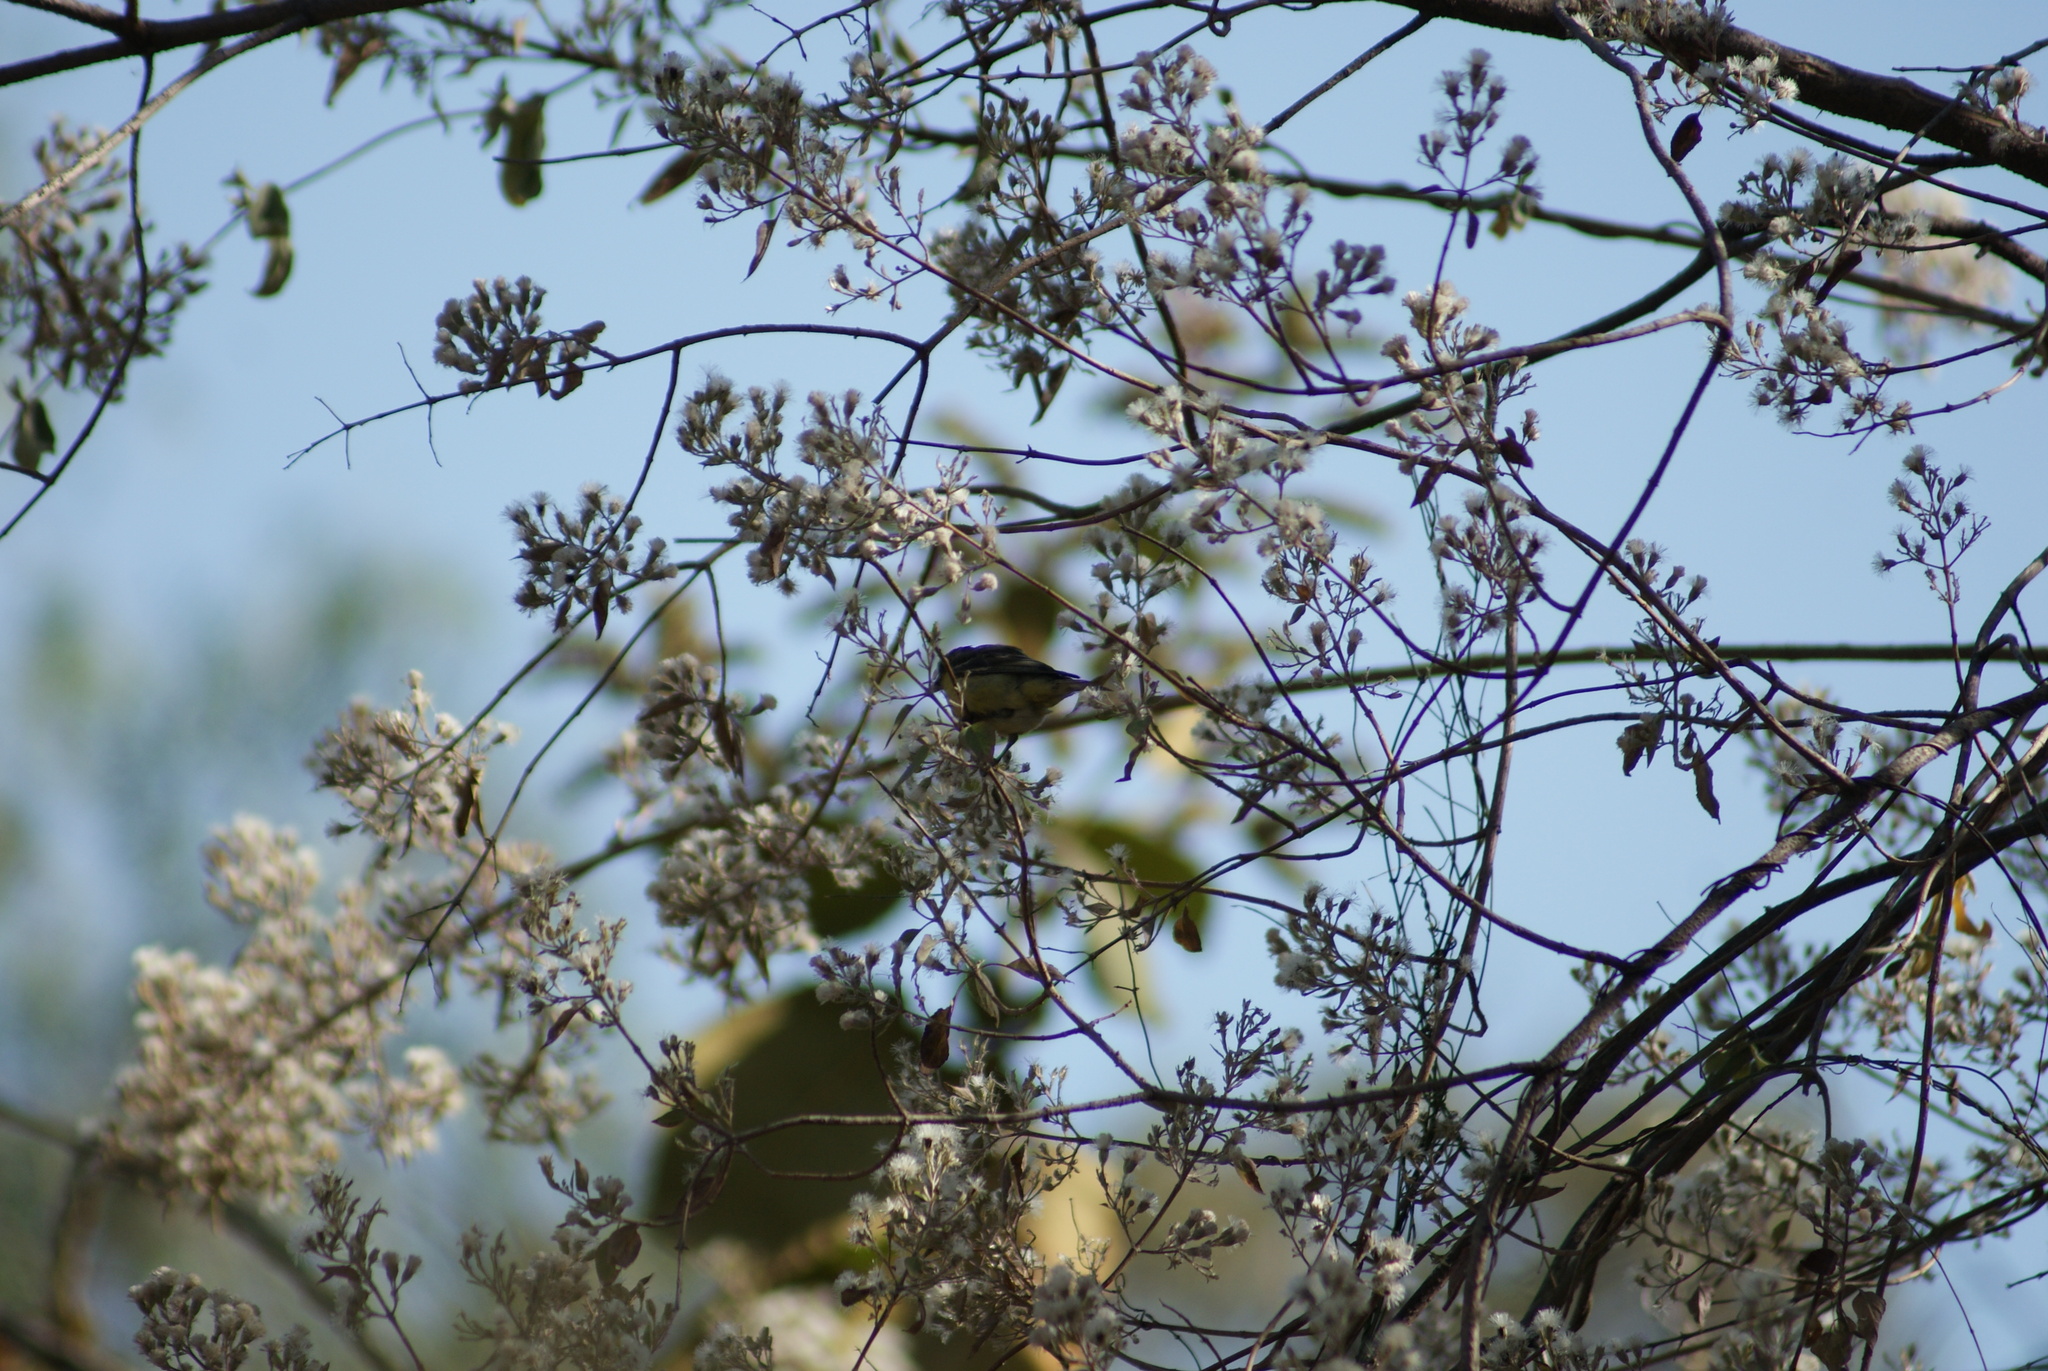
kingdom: Animalia
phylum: Chordata
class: Aves
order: Passeriformes
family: Fringillidae
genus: Spinus
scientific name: Spinus psaltria
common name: Lesser goldfinch
